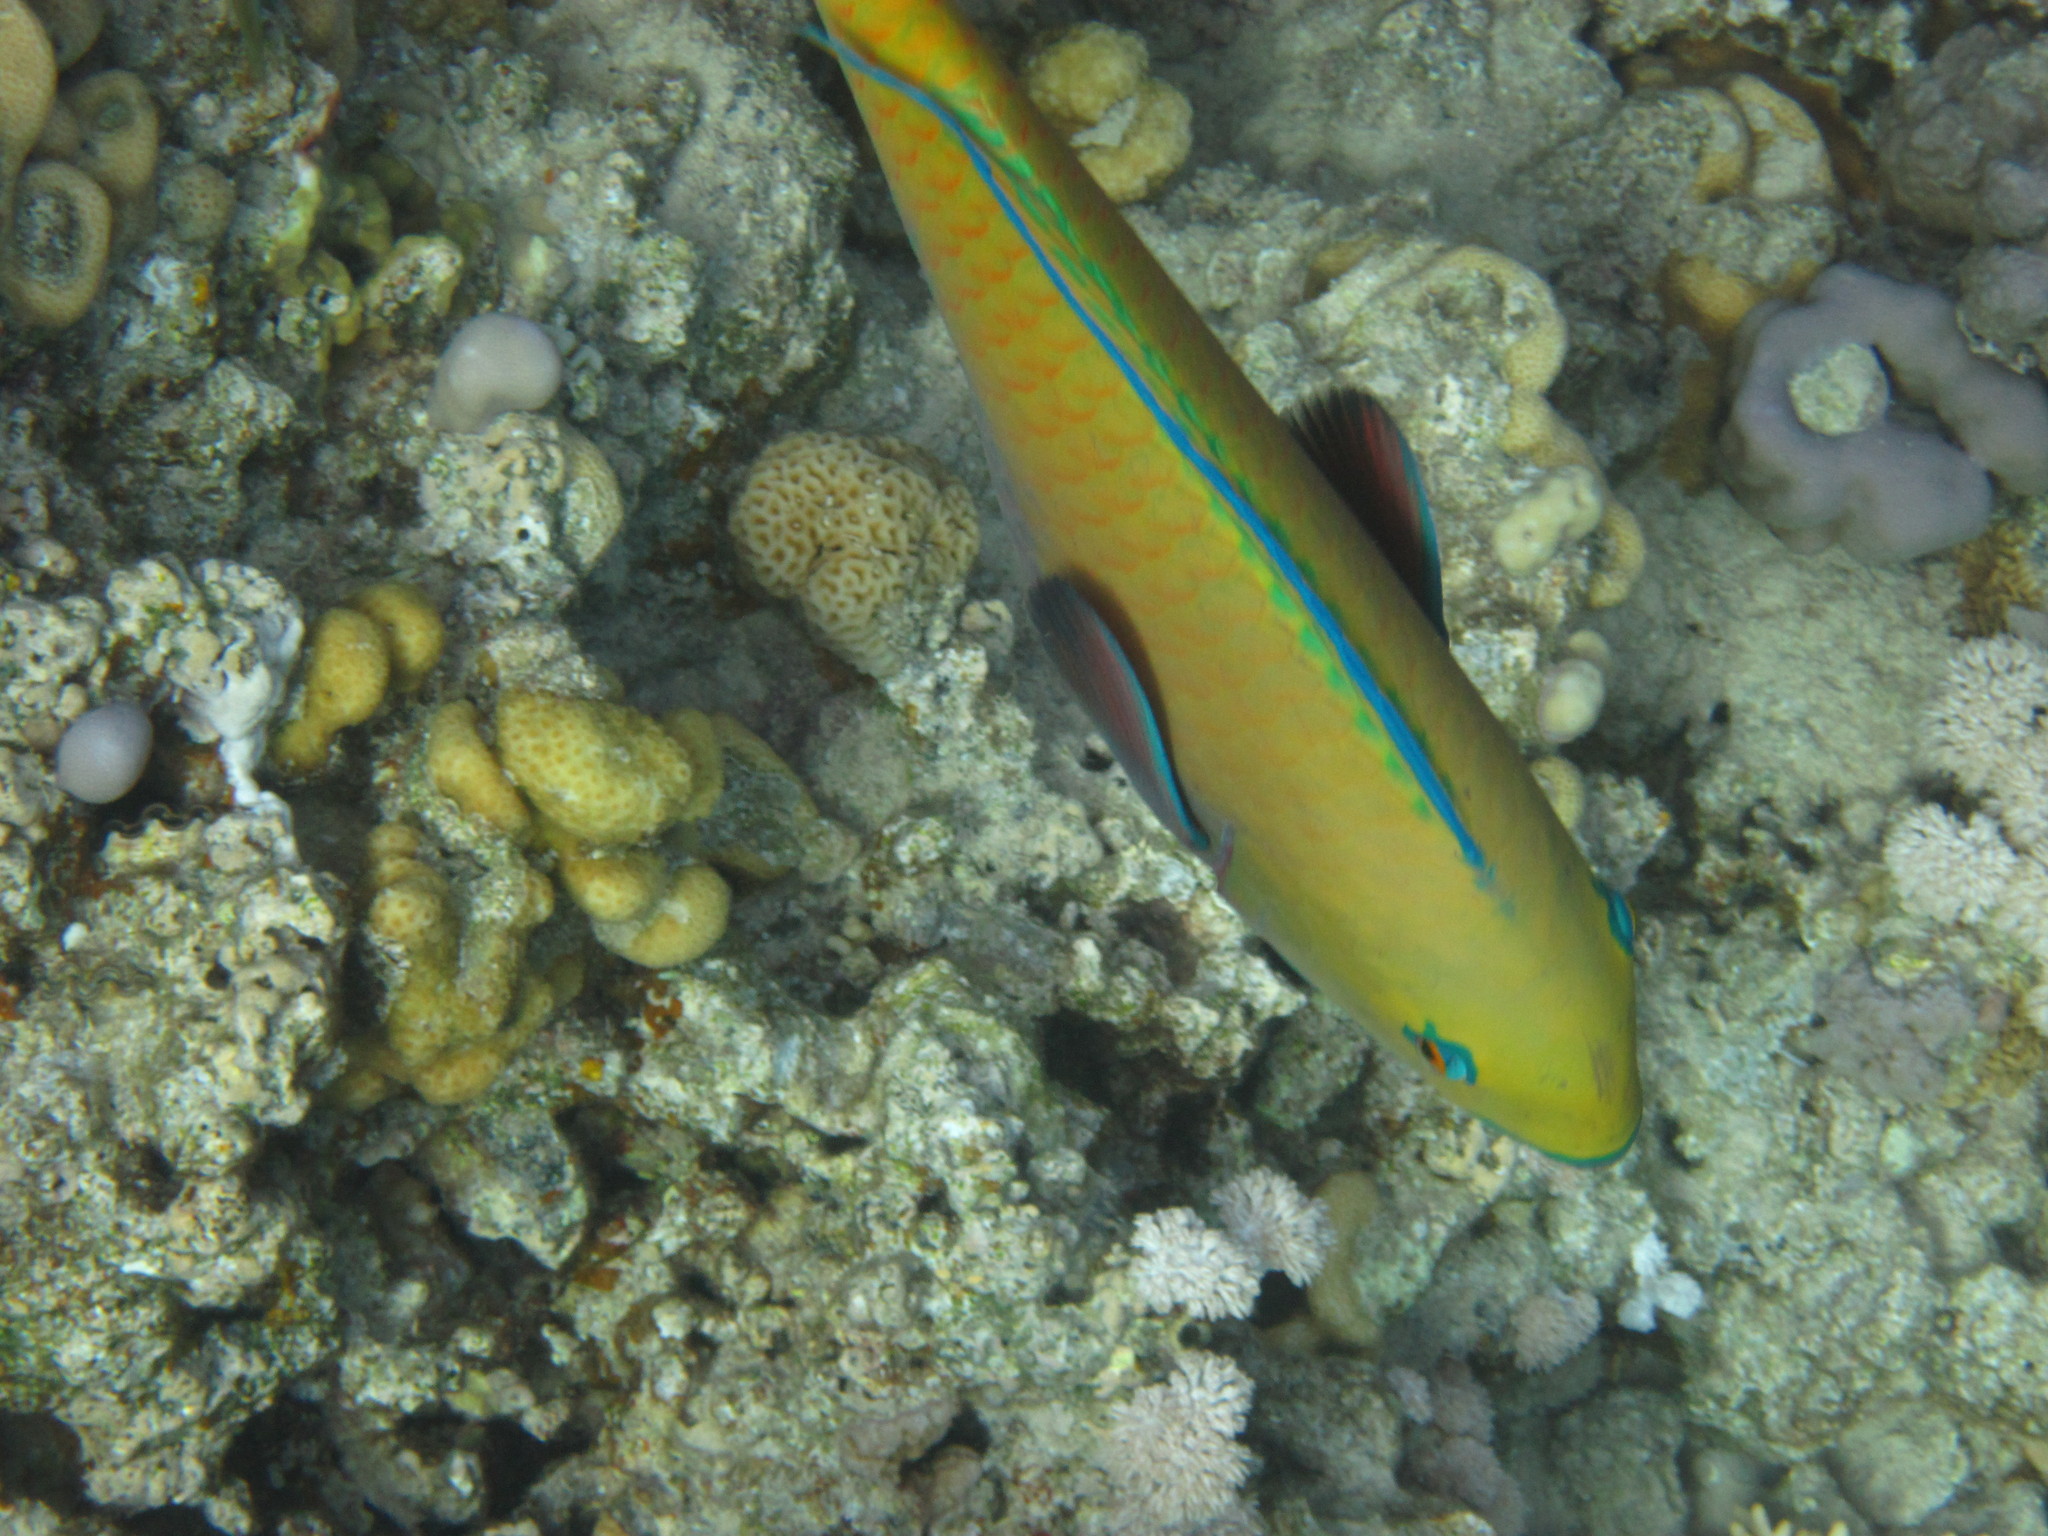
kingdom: Animalia
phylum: Chordata
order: Perciformes
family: Scaridae
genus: Chlorurus
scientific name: Chlorurus gibbus
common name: Heavybeak parrotfish
